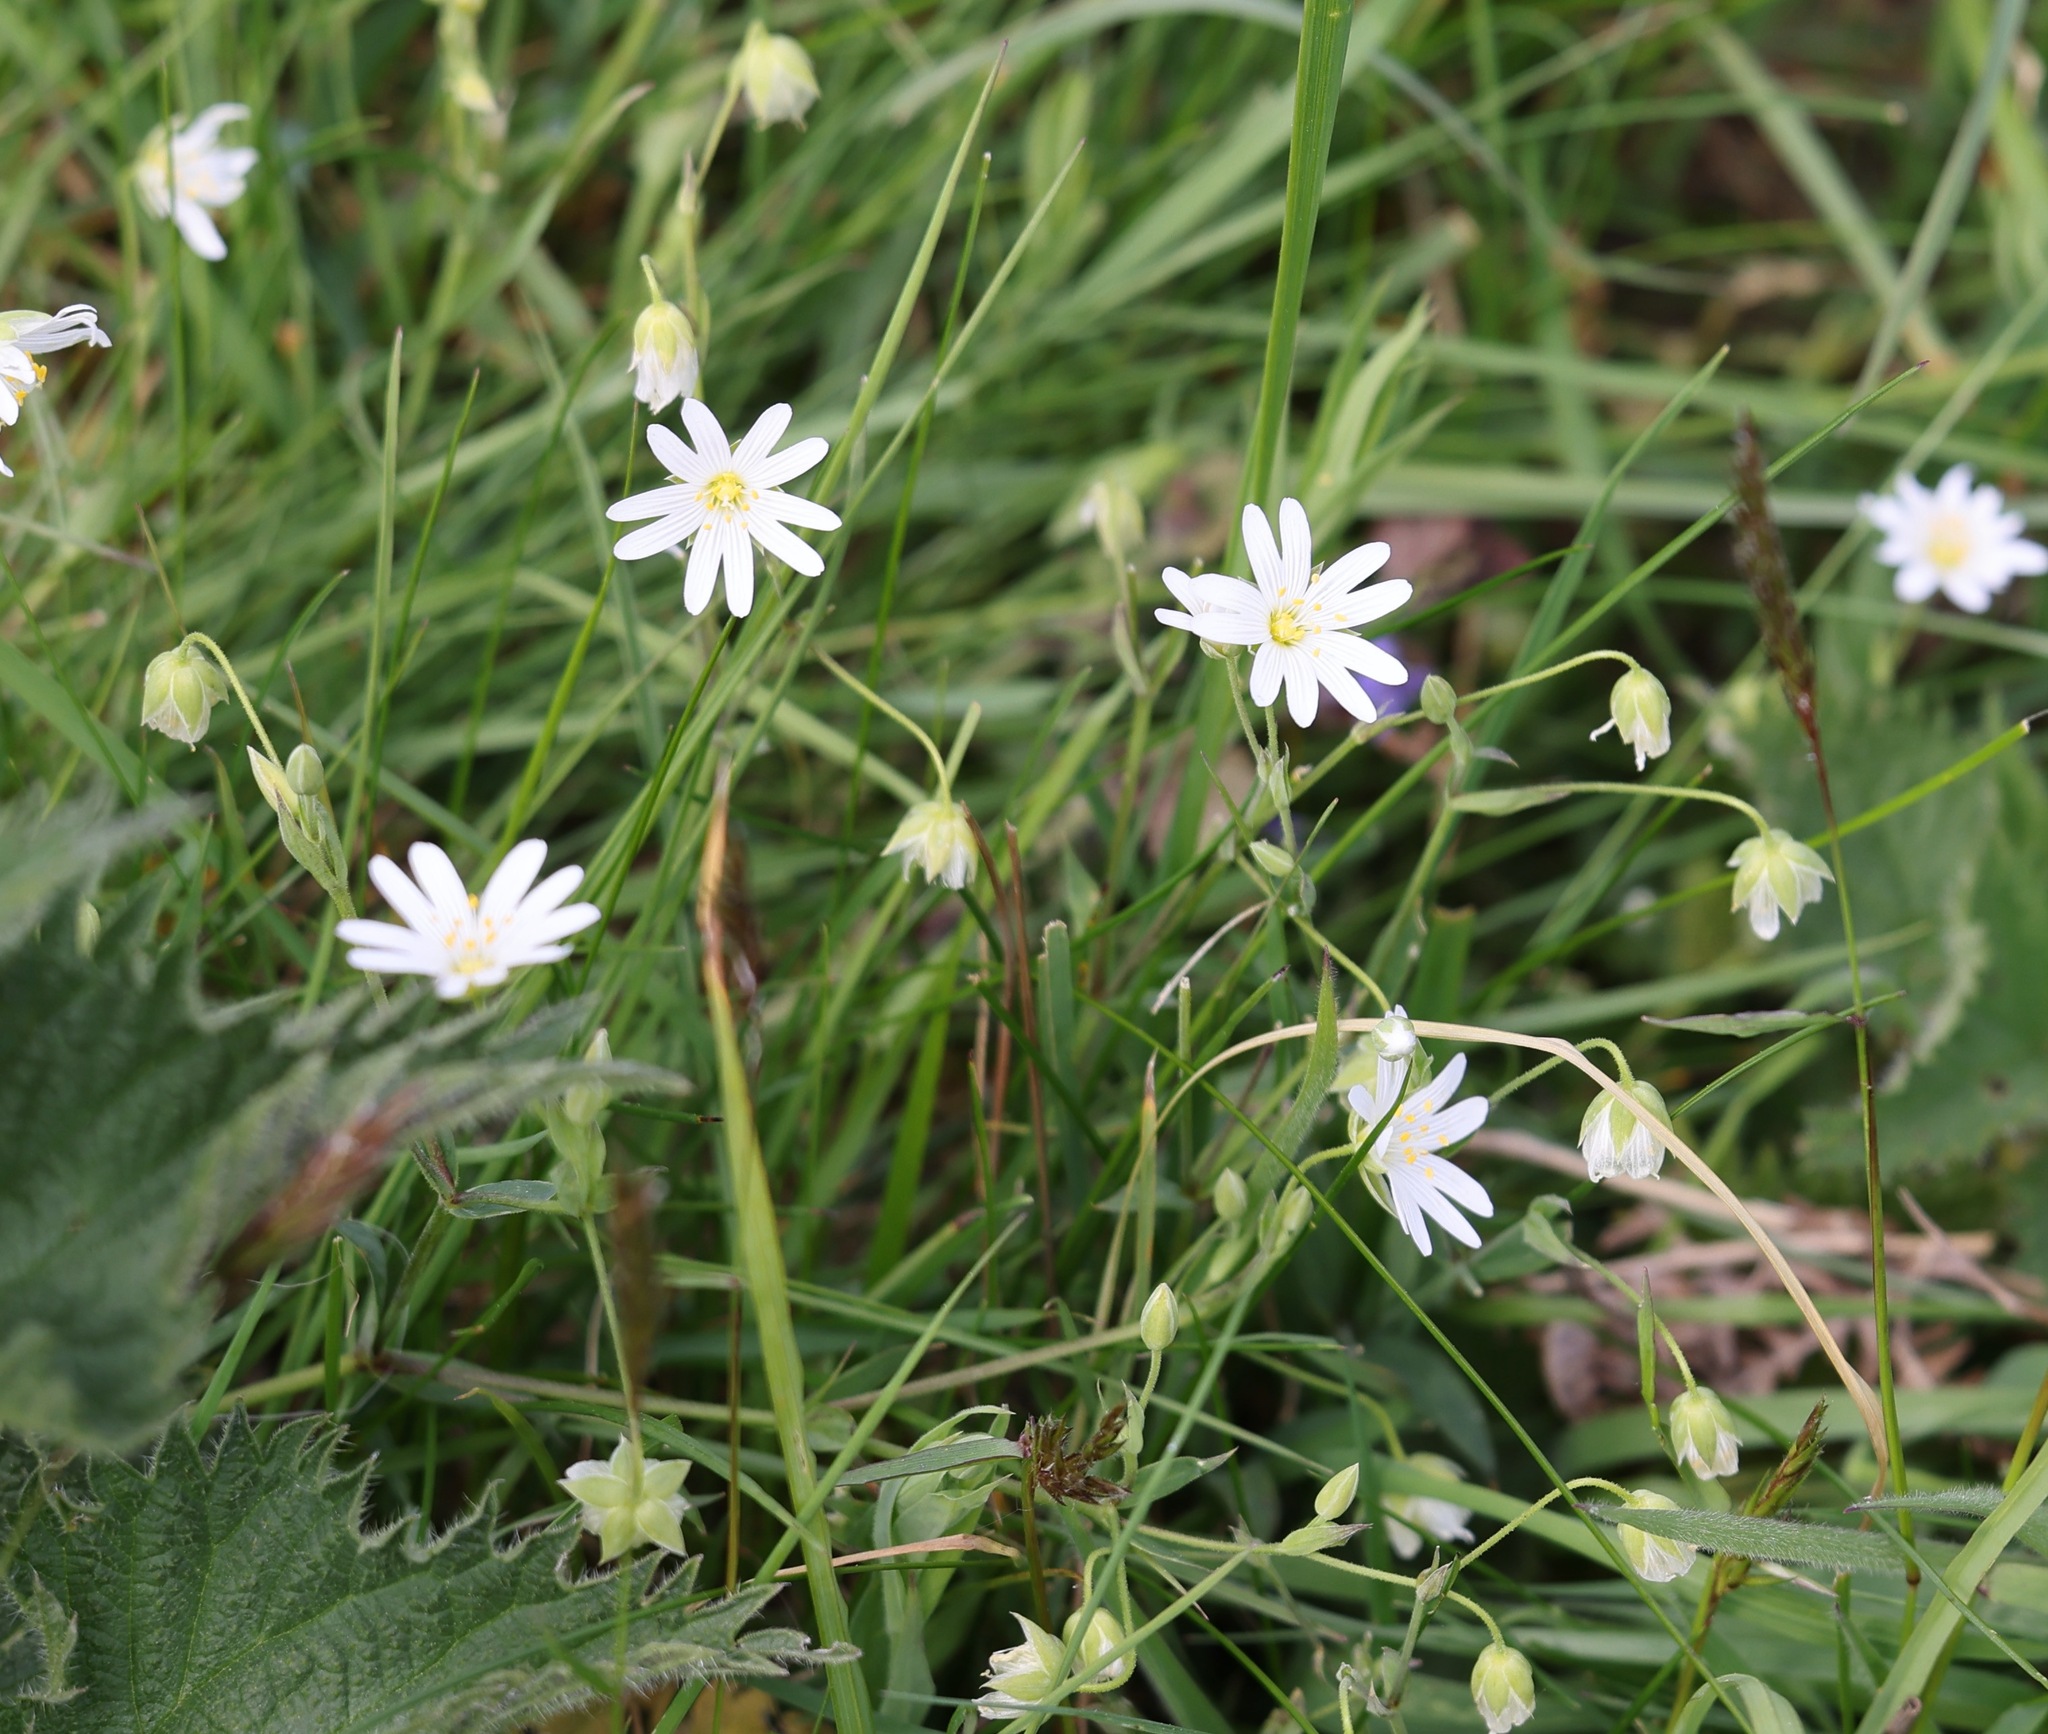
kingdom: Plantae
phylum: Tracheophyta
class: Magnoliopsida
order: Caryophyllales
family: Caryophyllaceae
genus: Rabelera
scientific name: Rabelera holostea
